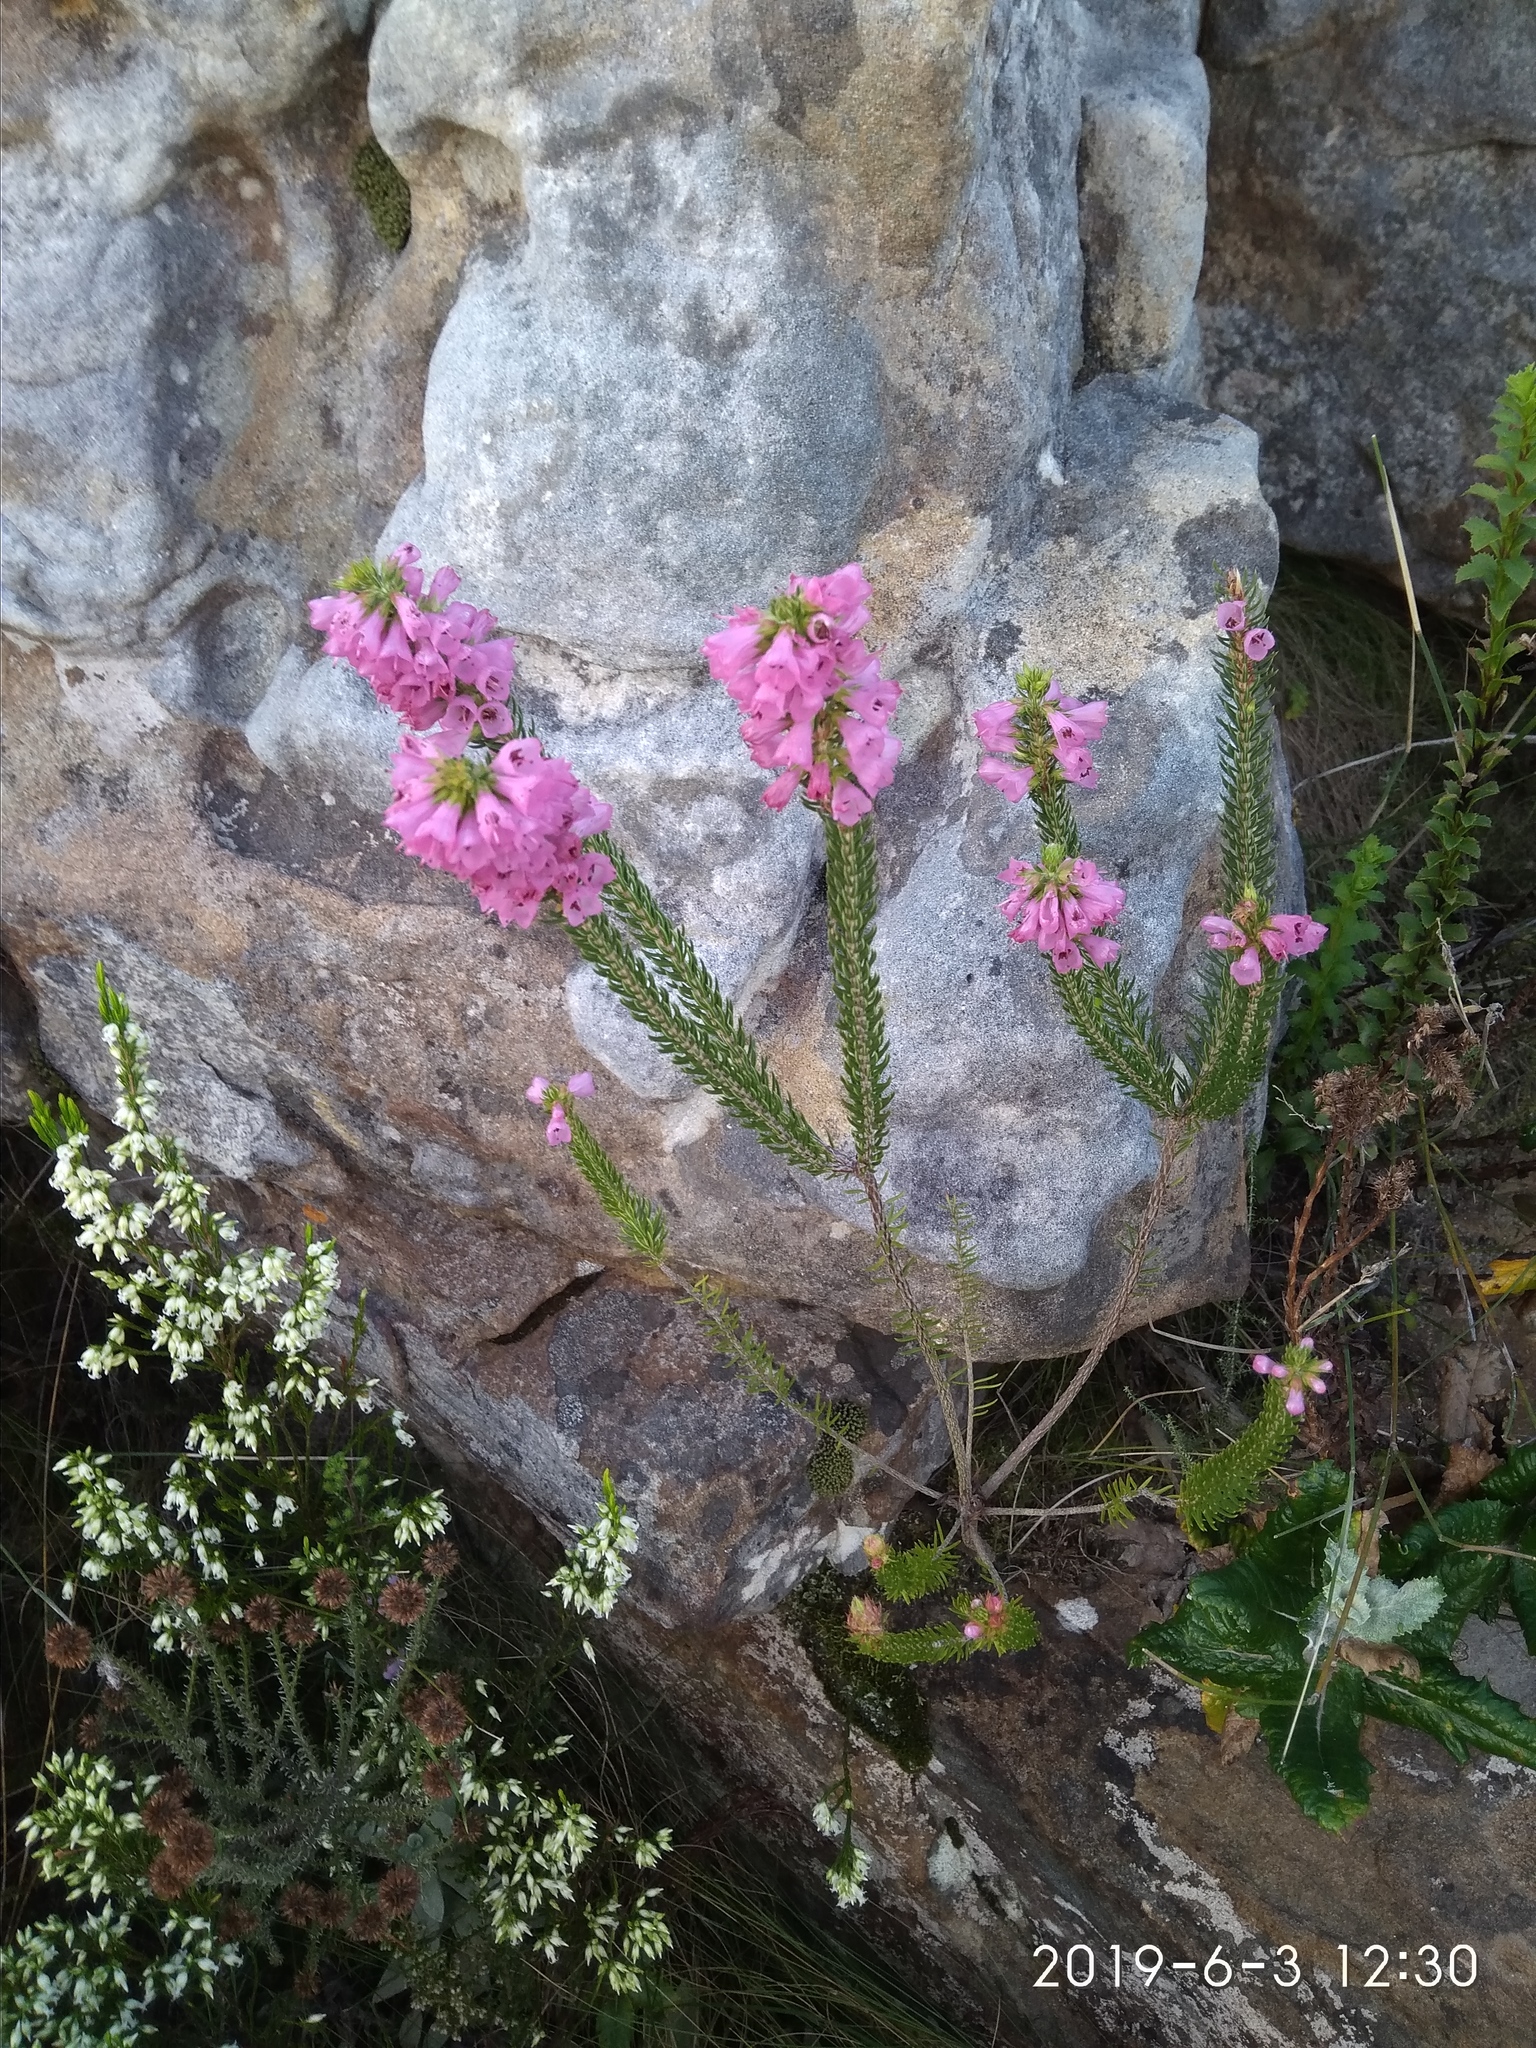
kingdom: Plantae
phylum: Tracheophyta
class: Magnoliopsida
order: Ericales
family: Ericaceae
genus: Erica
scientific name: Erica abietina
